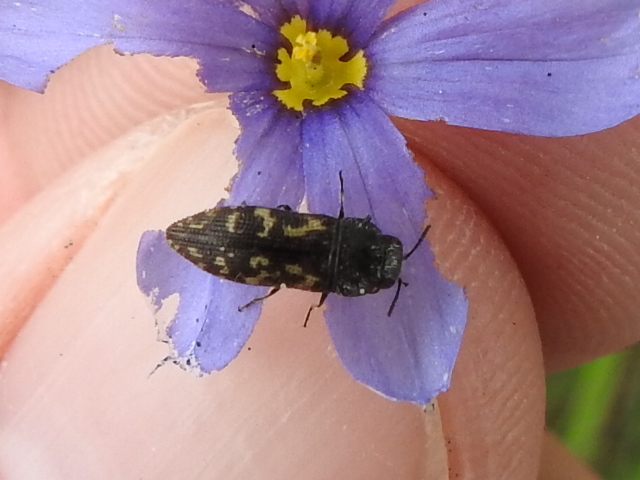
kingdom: Animalia
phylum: Arthropoda
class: Insecta
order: Coleoptera
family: Buprestidae
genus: Acmaeodera
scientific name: Acmaeodera neglecta
